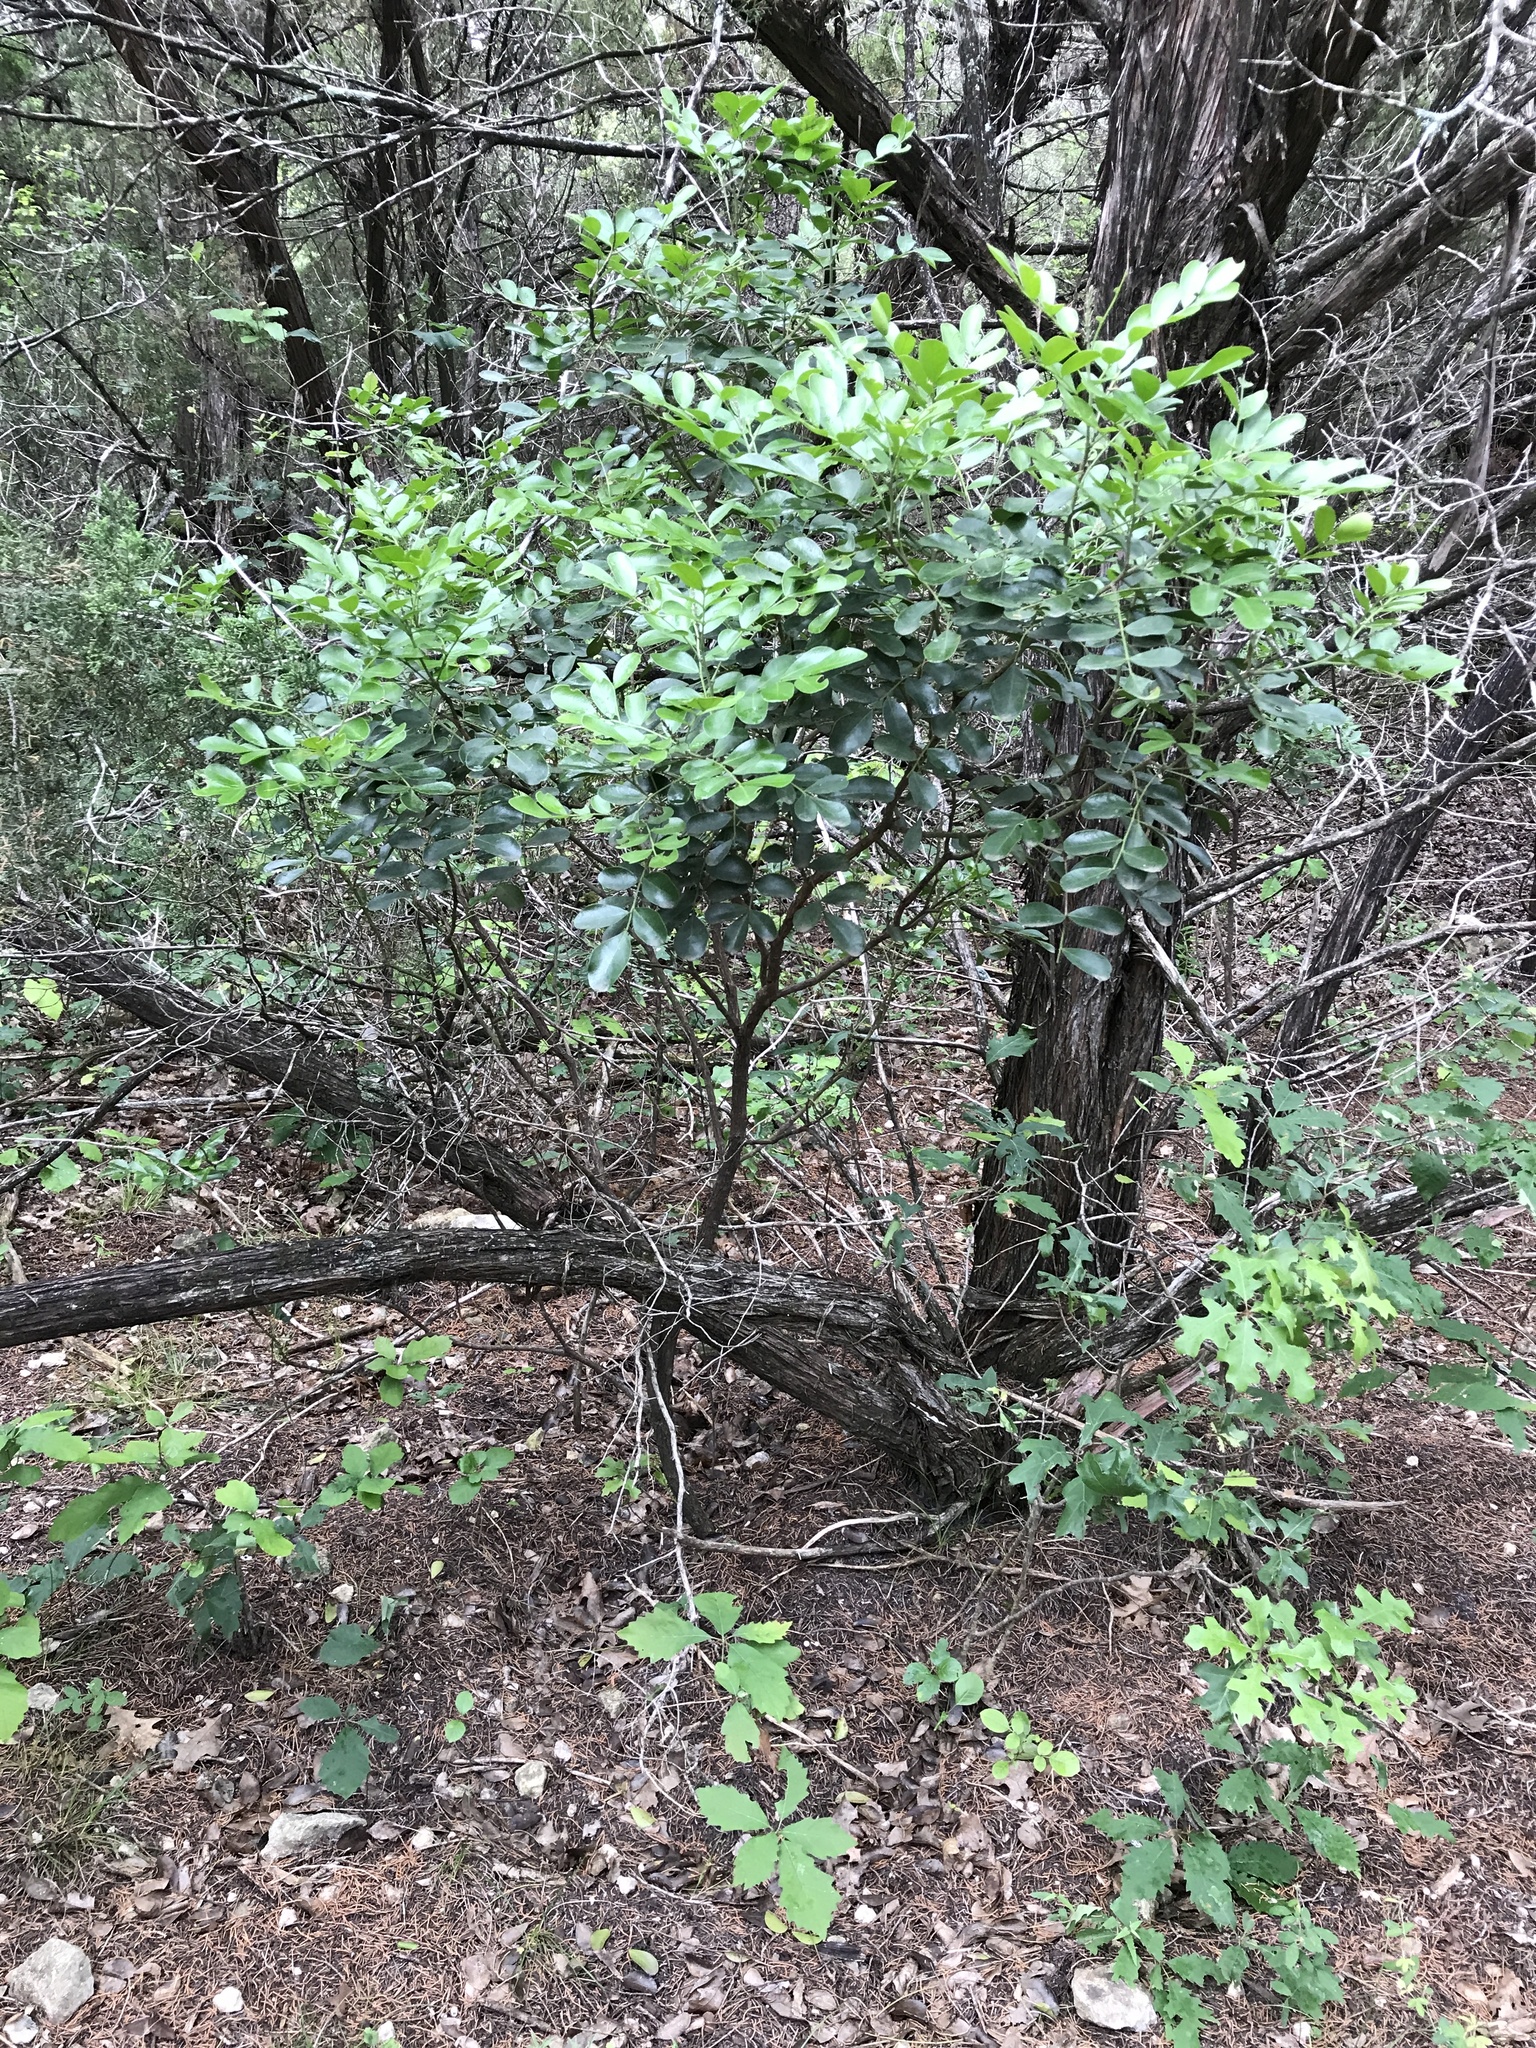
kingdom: Plantae
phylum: Tracheophyta
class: Magnoliopsida
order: Fabales
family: Fabaceae
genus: Dermatophyllum
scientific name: Dermatophyllum secundiflorum
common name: Texas-mountain-laurel
